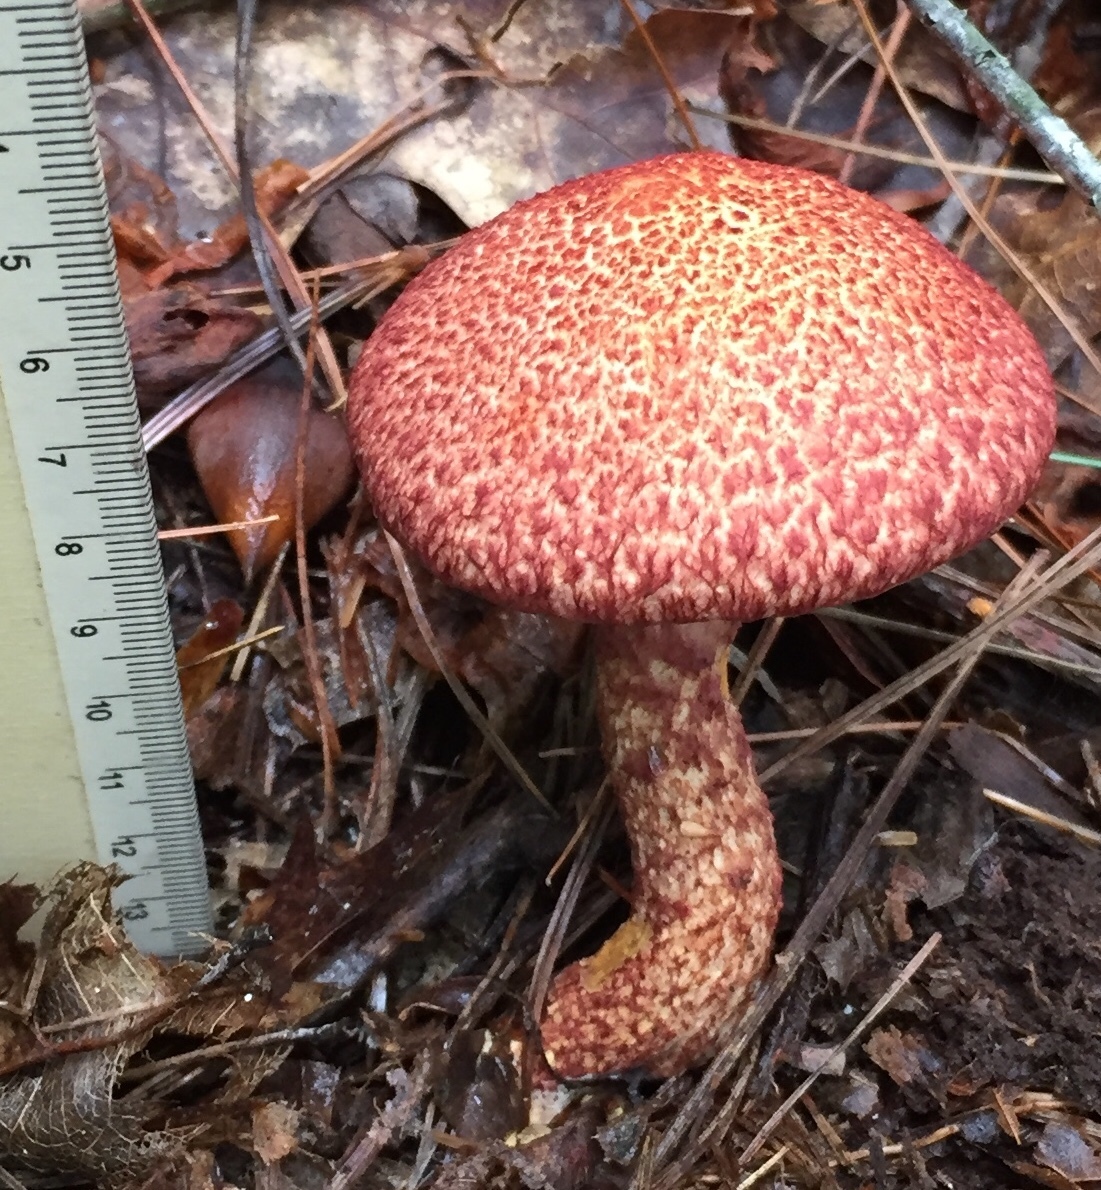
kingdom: Fungi
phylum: Basidiomycota
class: Agaricomycetes
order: Boletales
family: Suillaceae
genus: Suillus
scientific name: Suillus spraguei
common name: Painted suillus
